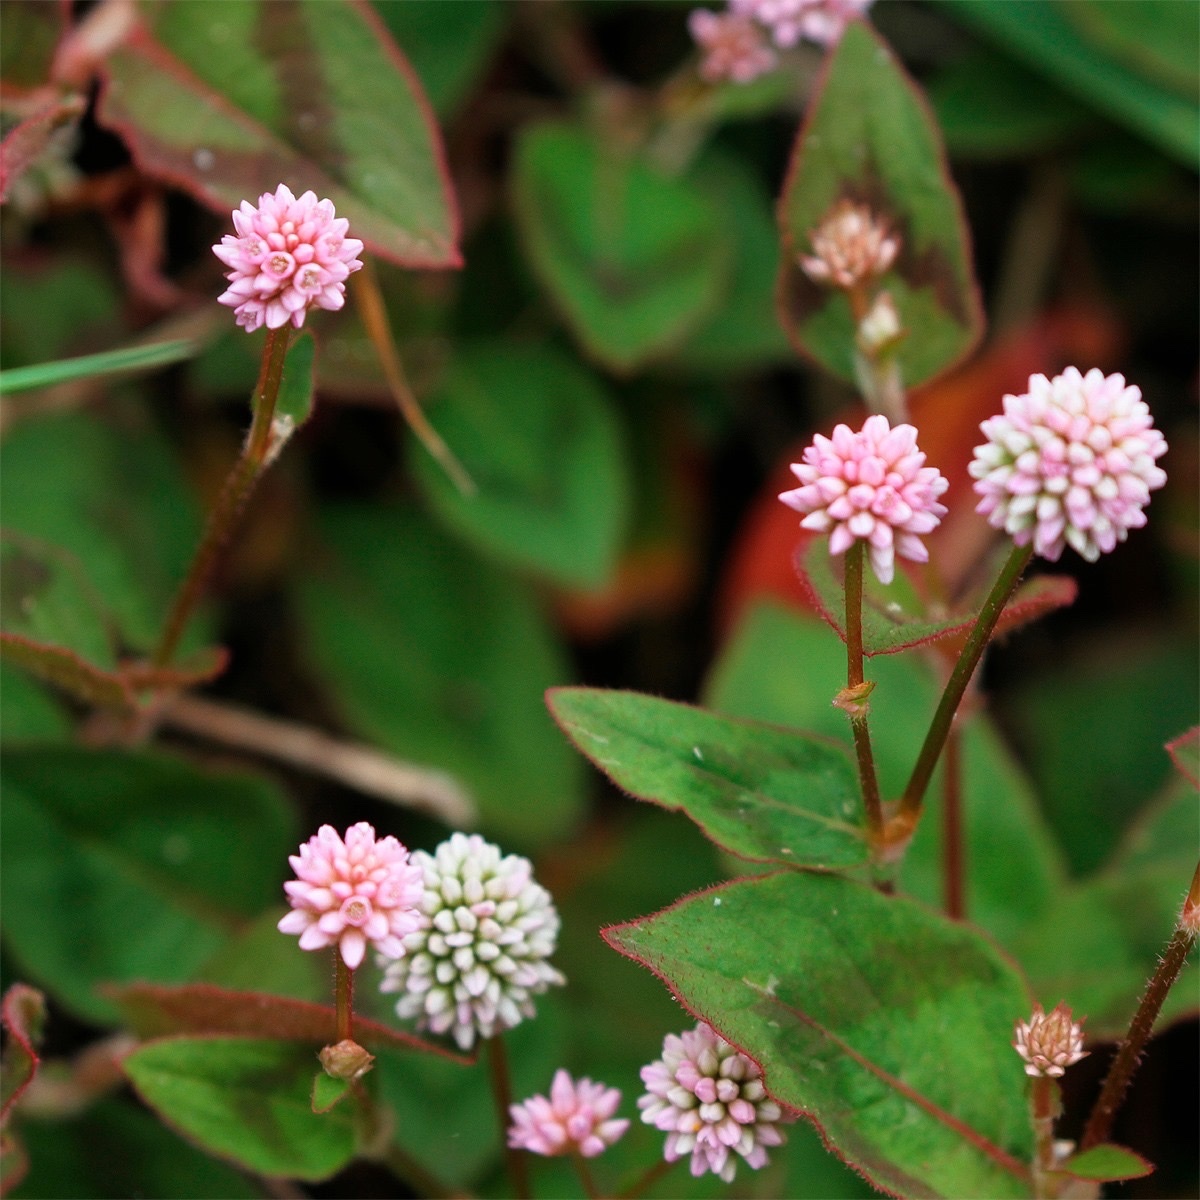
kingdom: Plantae
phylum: Tracheophyta
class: Magnoliopsida
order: Caryophyllales
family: Polygonaceae
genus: Persicaria
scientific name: Persicaria capitata
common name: Pinkhead smartweed
